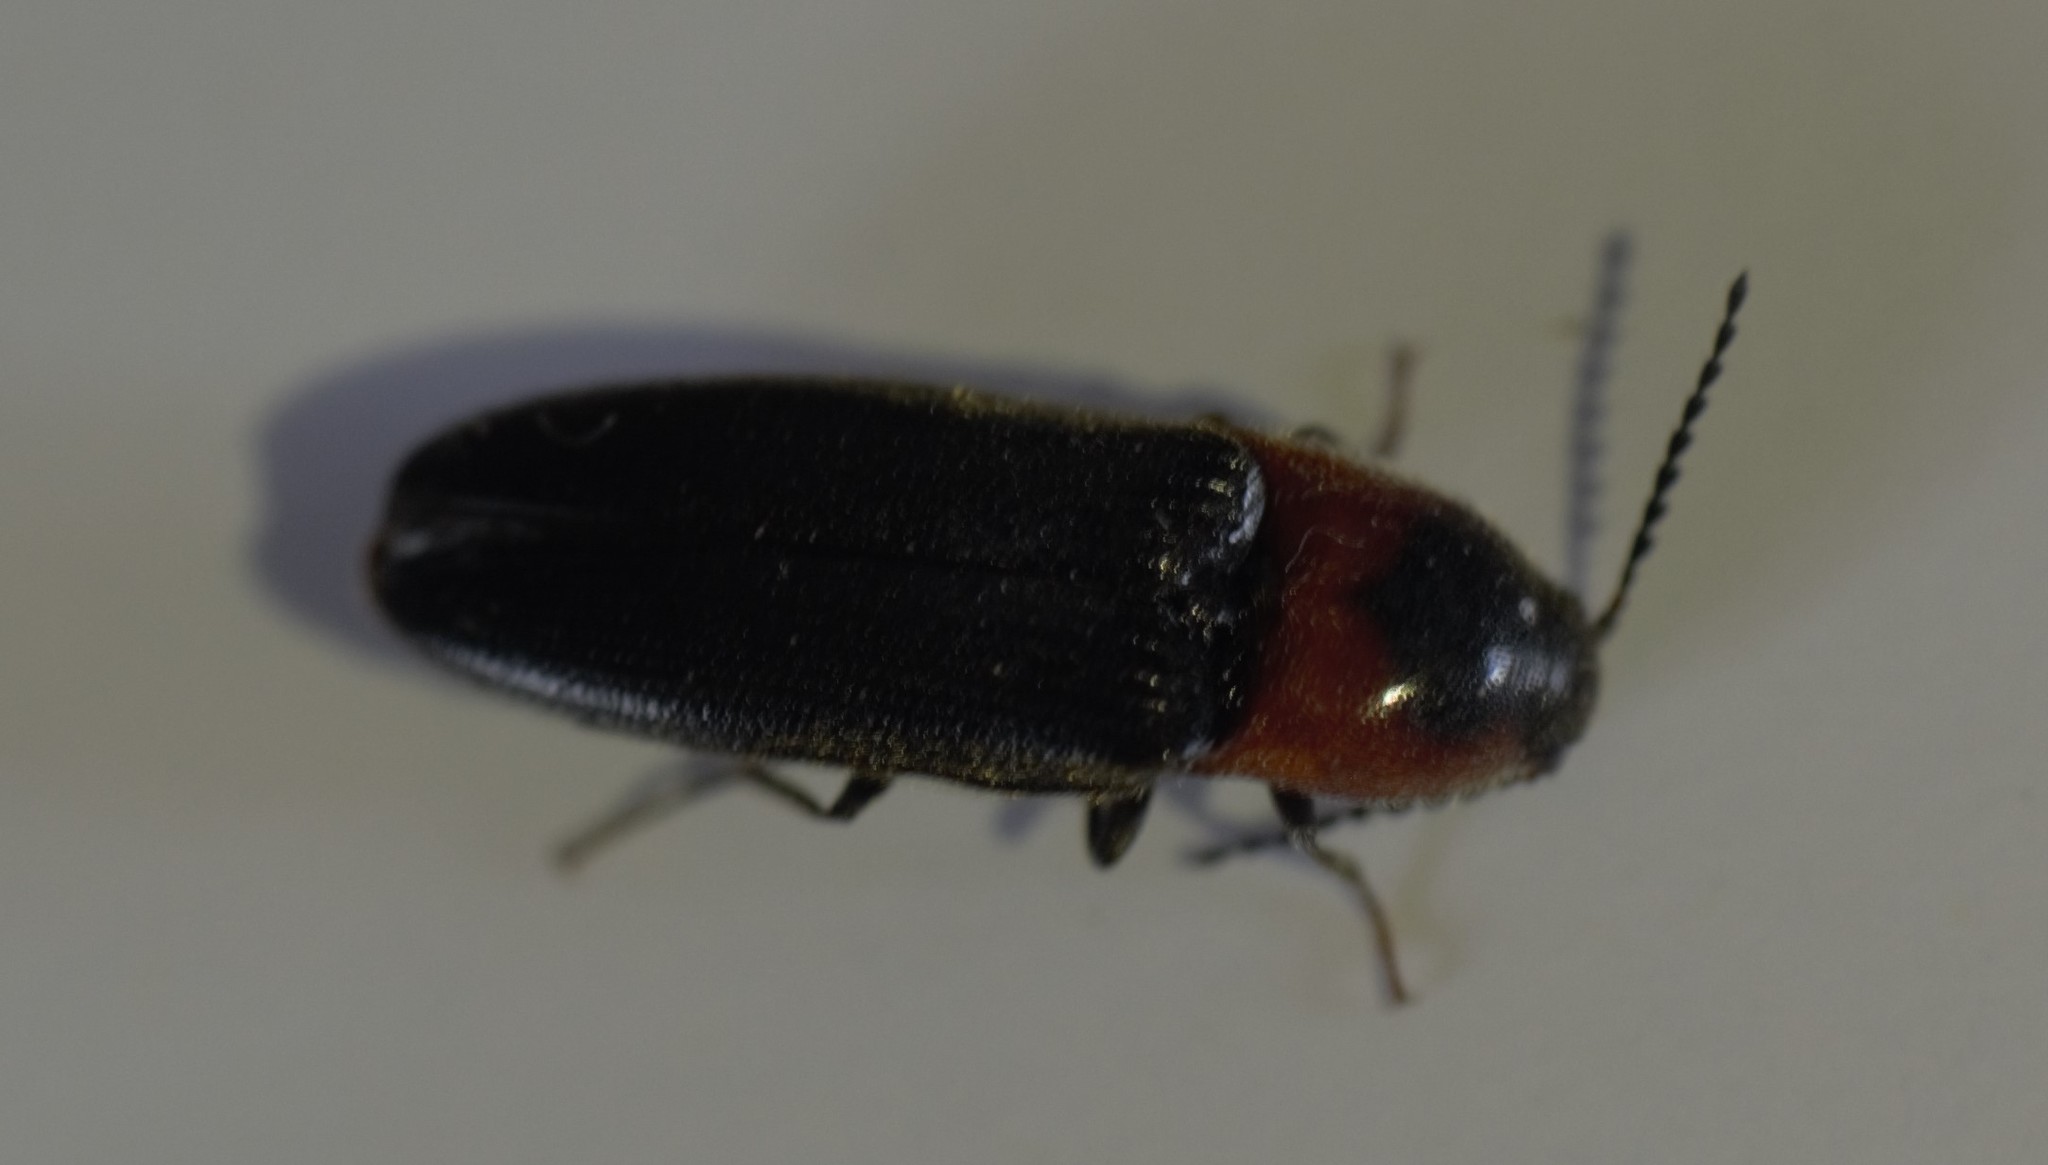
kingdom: Animalia
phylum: Arthropoda
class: Insecta
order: Coleoptera
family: Elateridae
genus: Ampedus
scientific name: Ampedus rubricus
